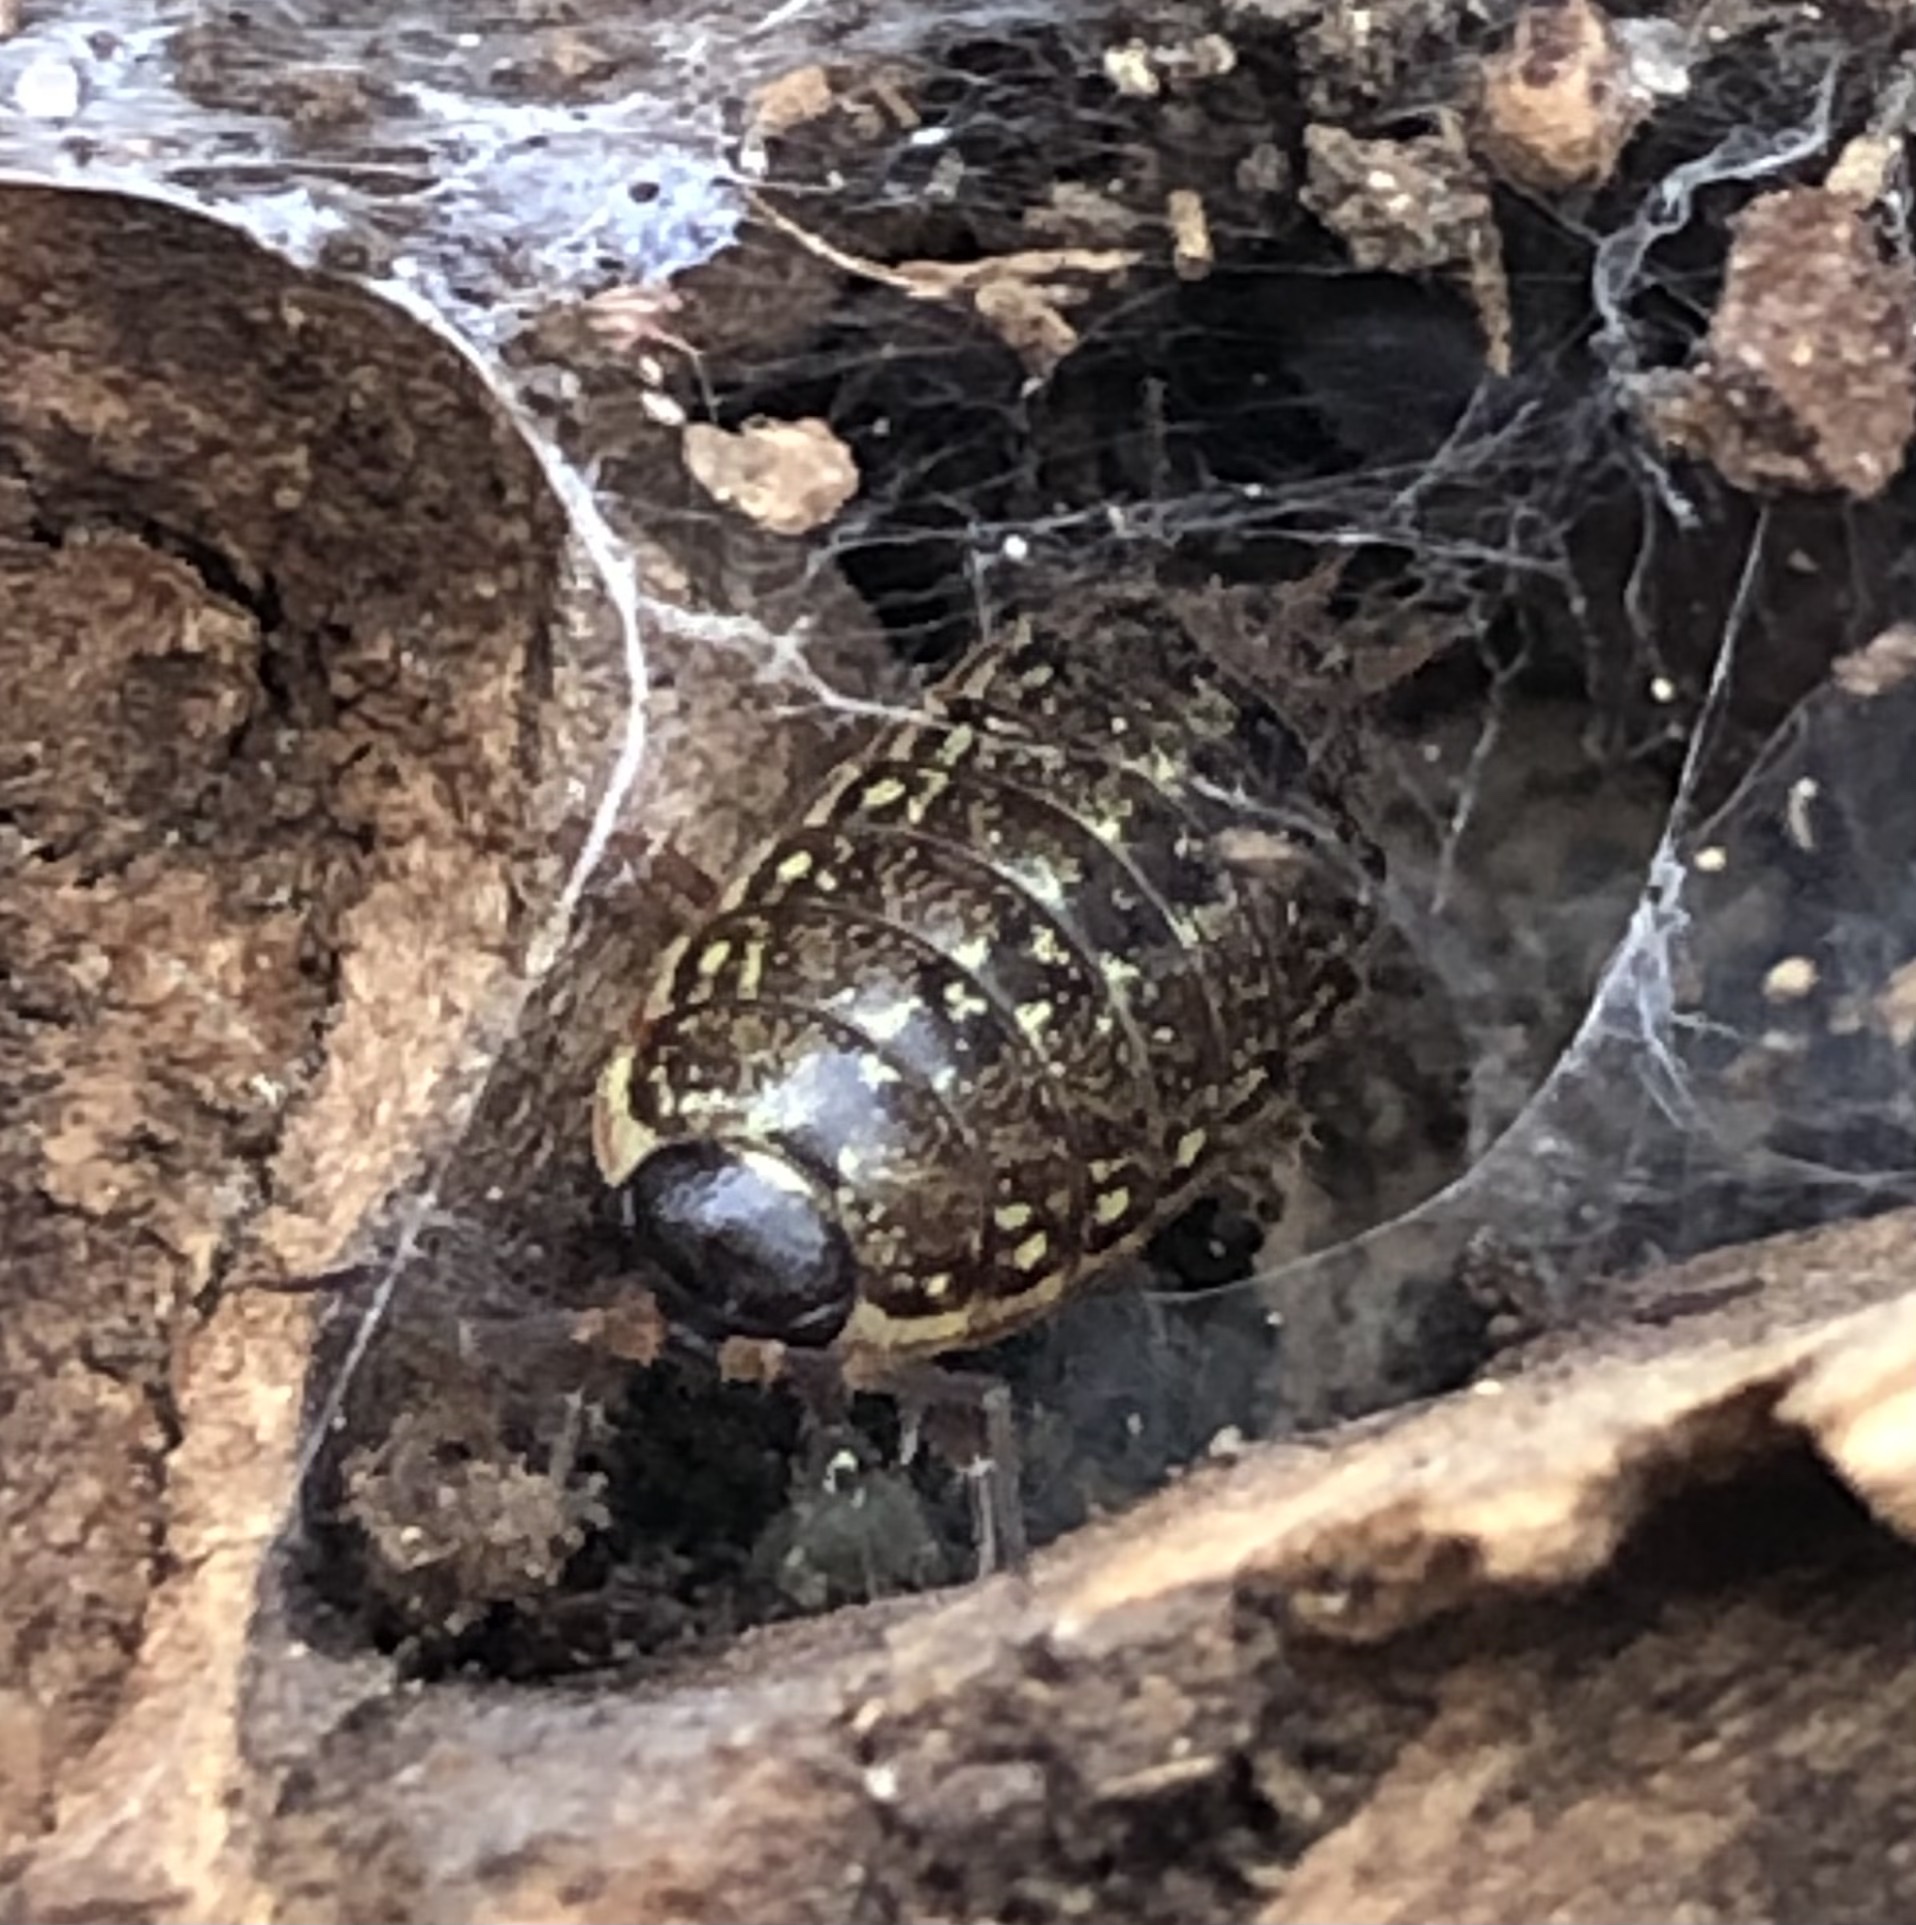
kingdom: Animalia
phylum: Arthropoda
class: Malacostraca
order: Isopoda
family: Philosciidae
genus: Philoscia
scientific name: Philoscia muscorum
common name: Common striped woodlouse
